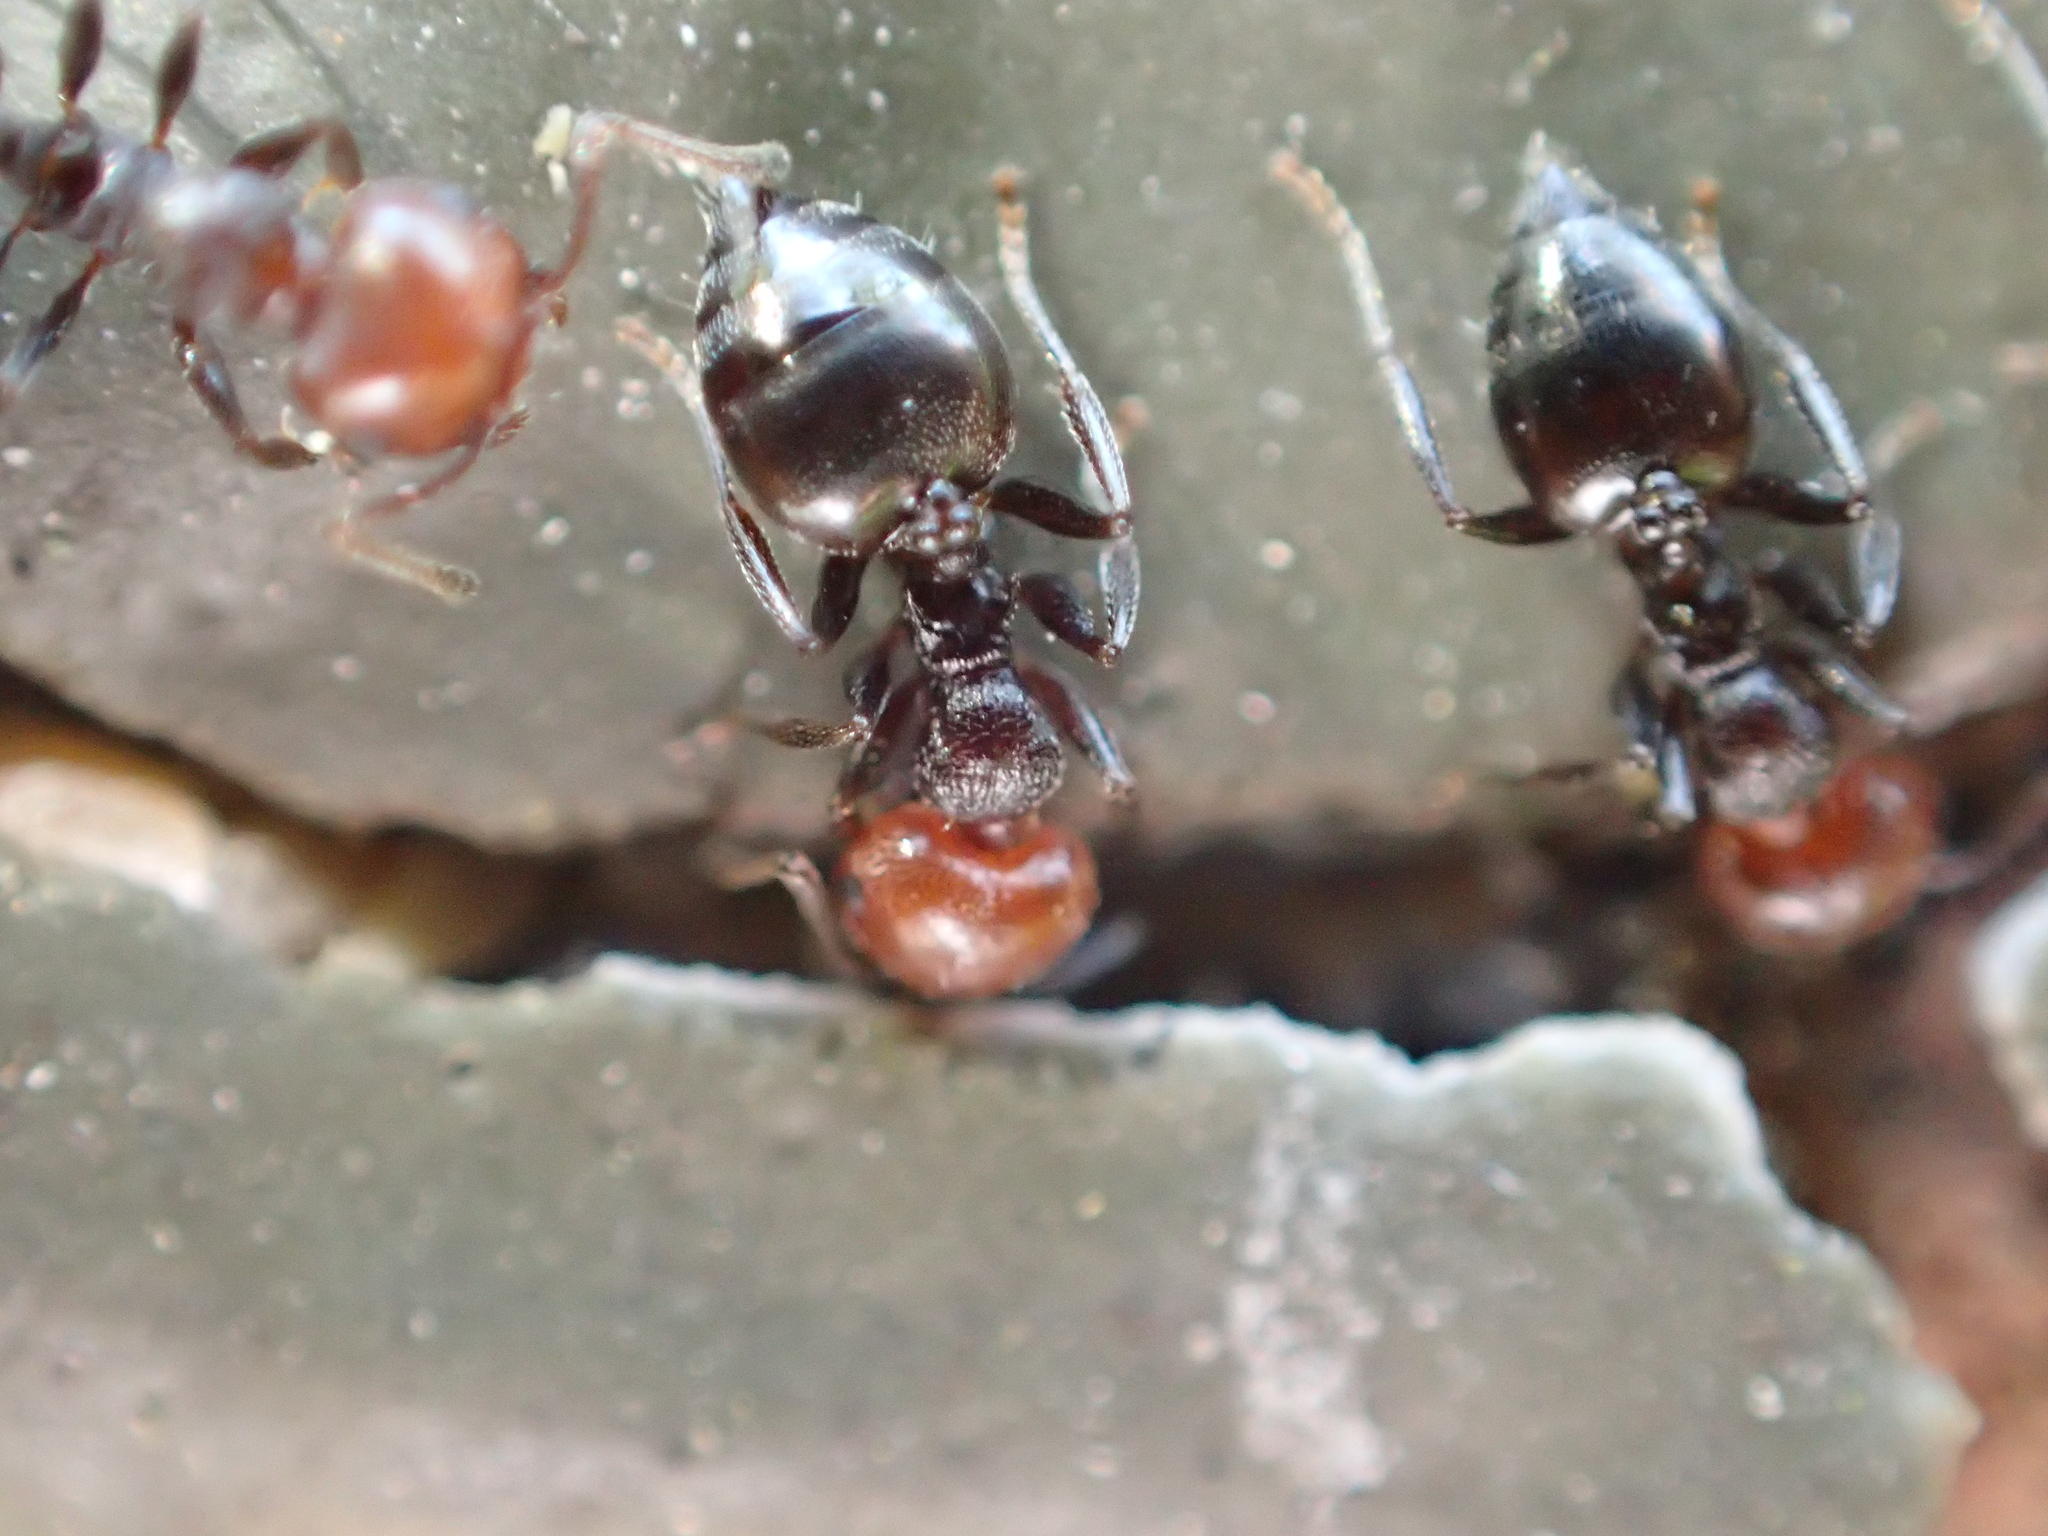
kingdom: Animalia
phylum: Arthropoda
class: Insecta
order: Hymenoptera
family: Formicidae
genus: Crematogaster
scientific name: Crematogaster scutellaris
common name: Fourmi du liège
